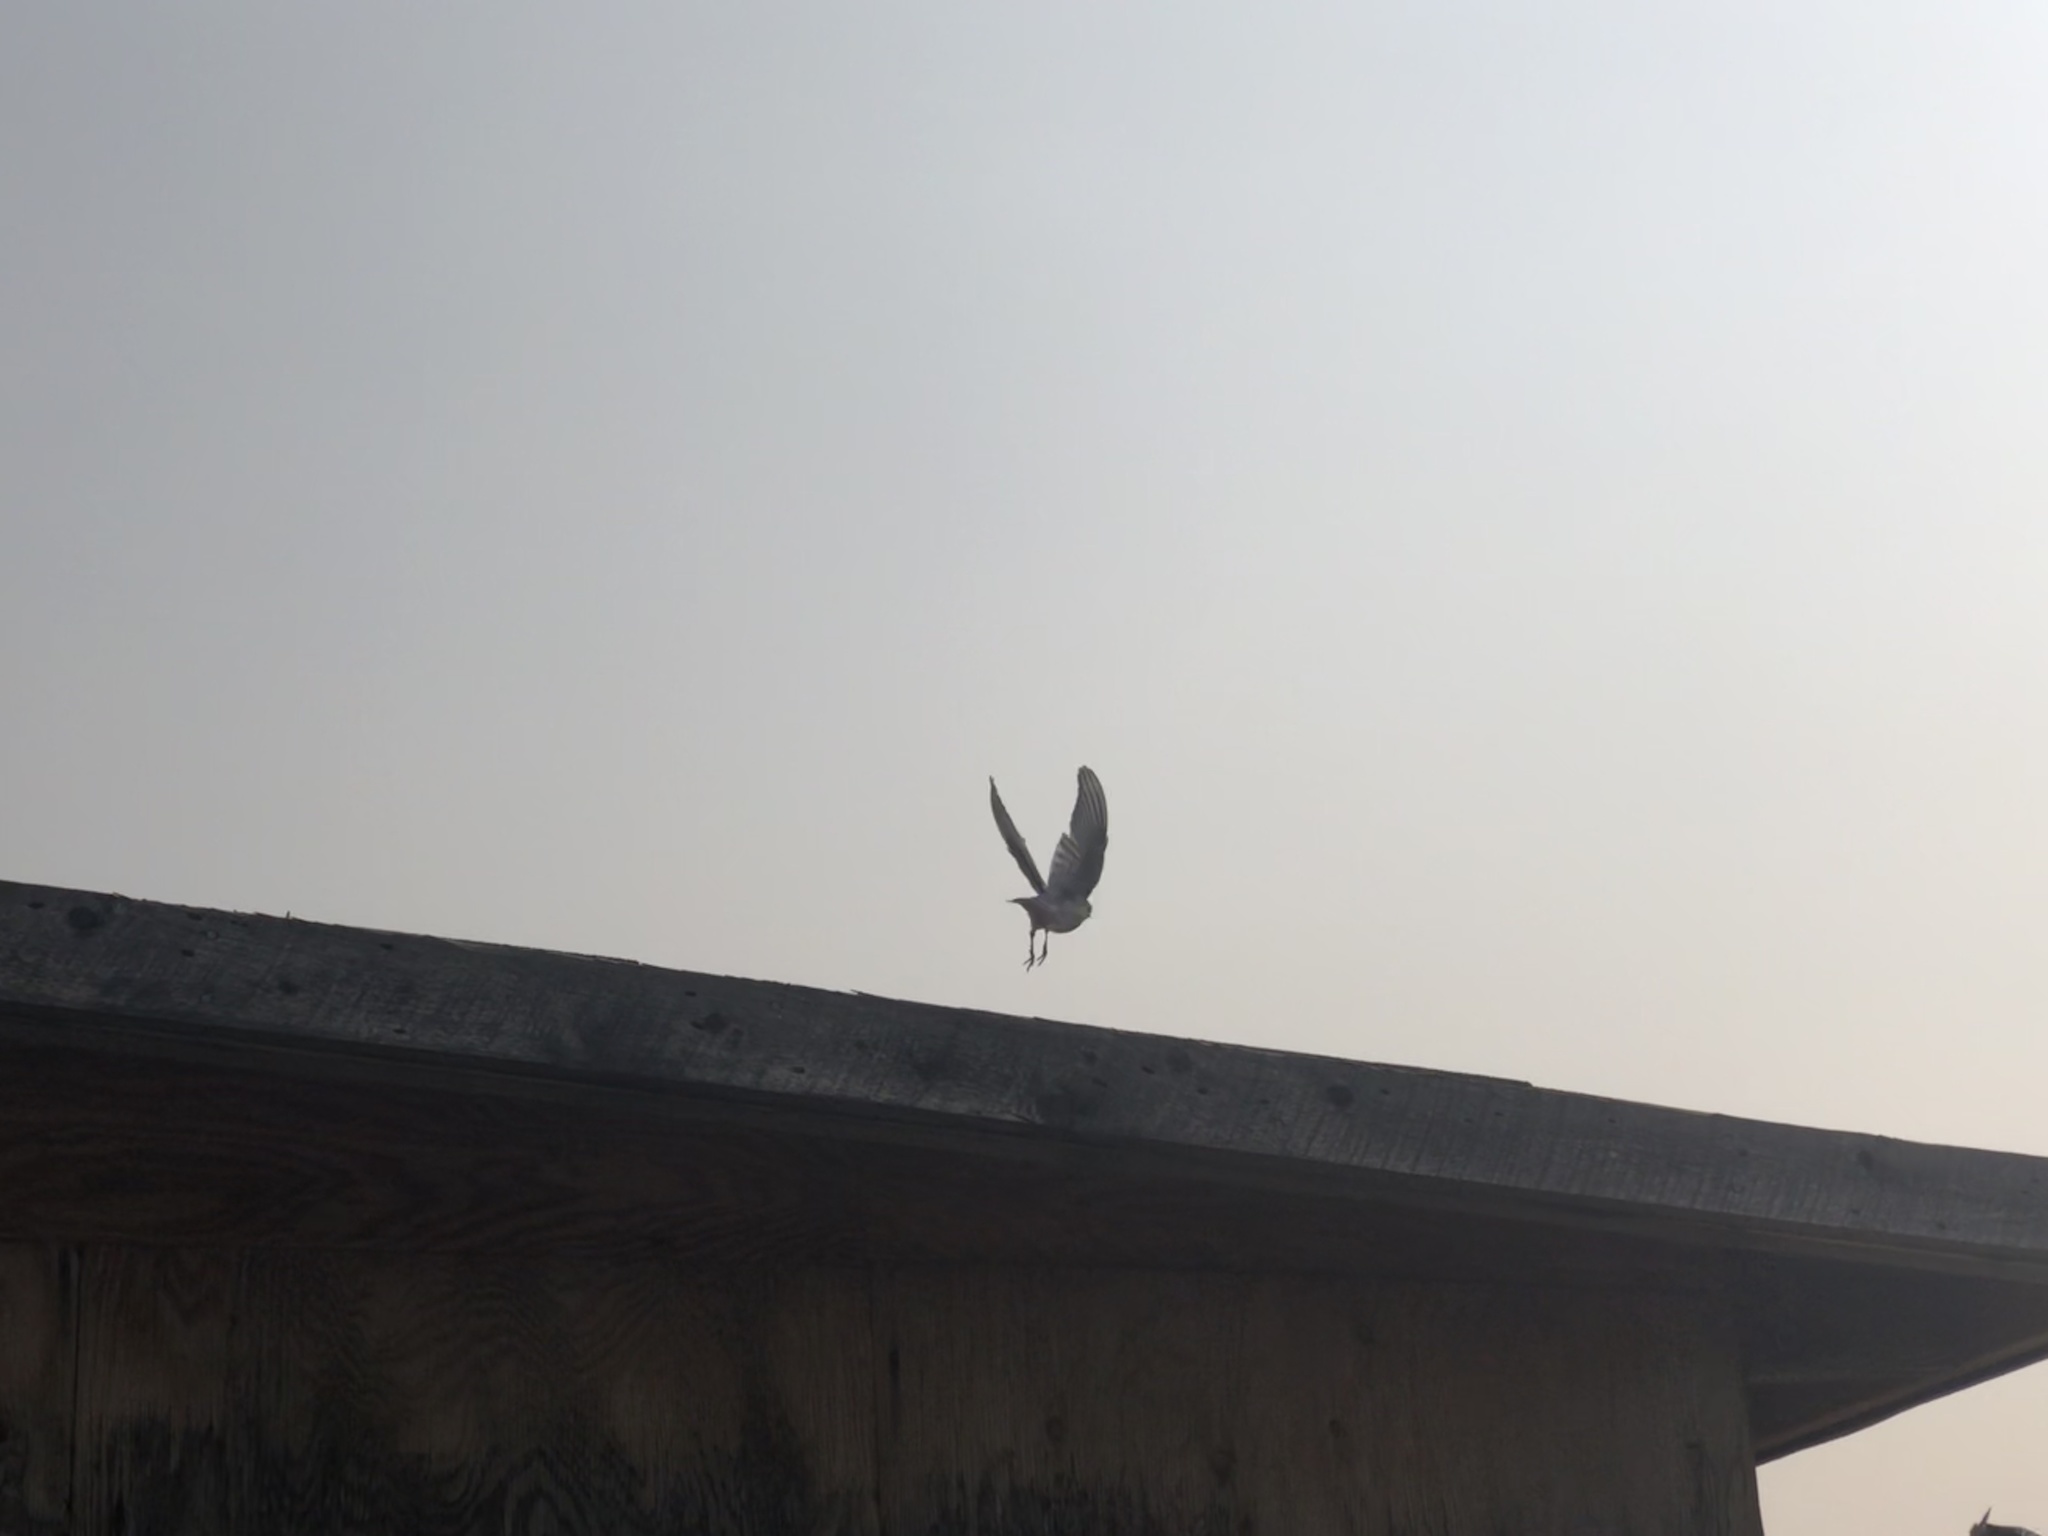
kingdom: Animalia
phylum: Chordata
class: Aves
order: Passeriformes
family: Turdidae
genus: Sialia
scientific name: Sialia currucoides
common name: Mountain bluebird
